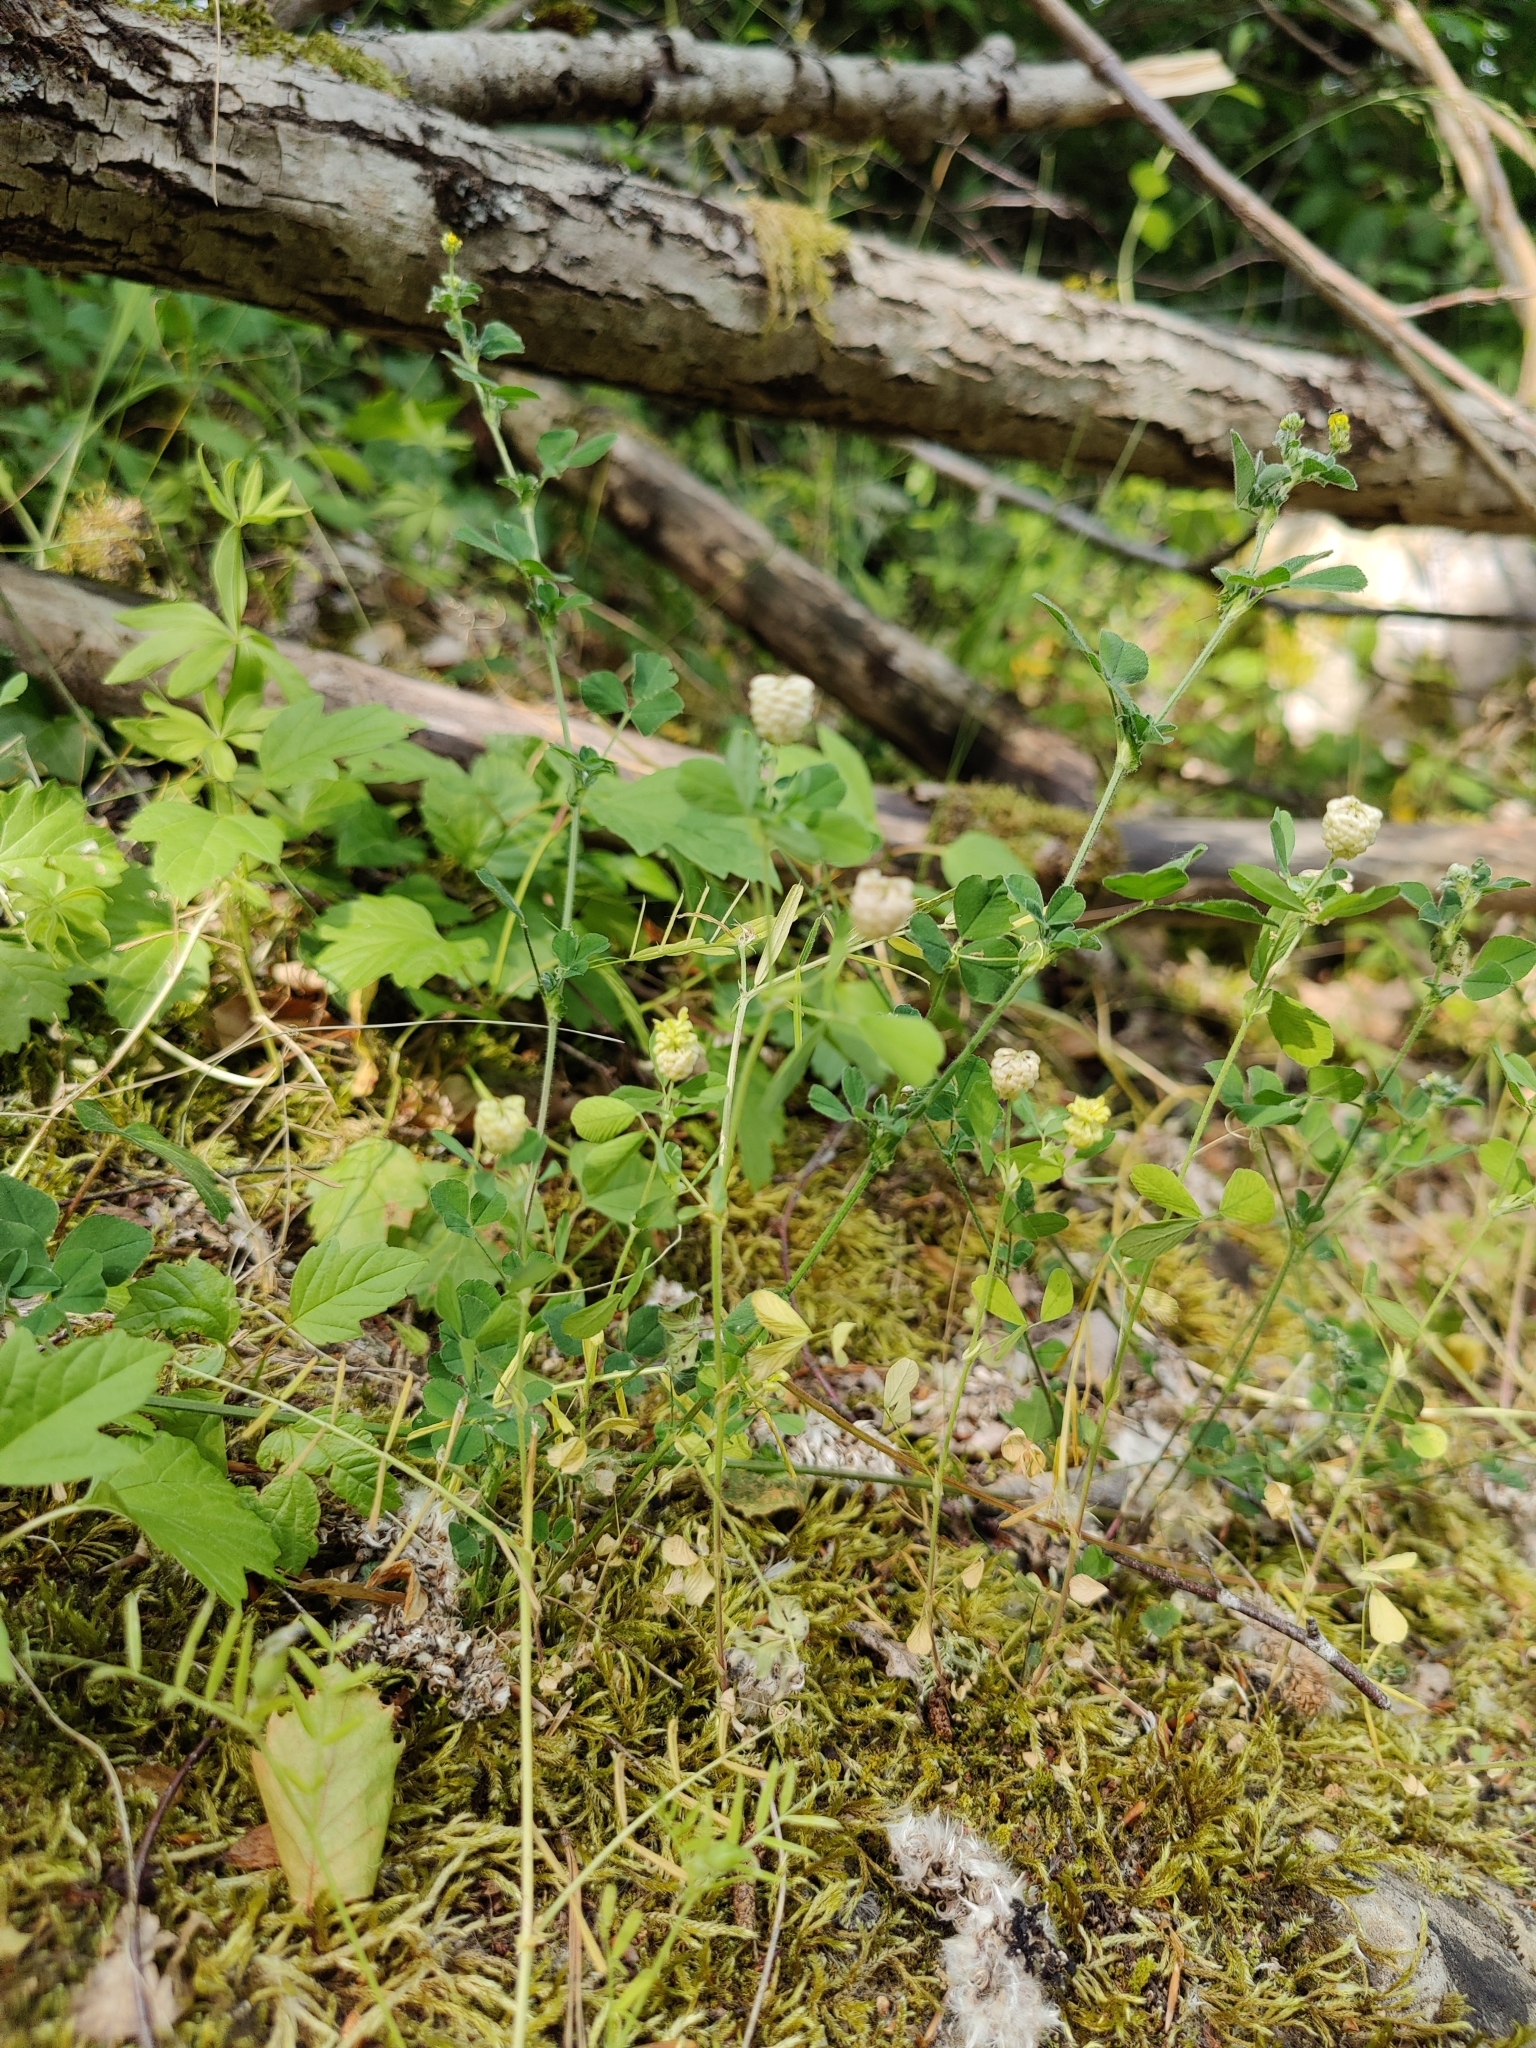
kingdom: Plantae
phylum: Tracheophyta
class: Magnoliopsida
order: Fabales
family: Fabaceae
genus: Trifolium
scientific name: Trifolium campestre
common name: Field clover
